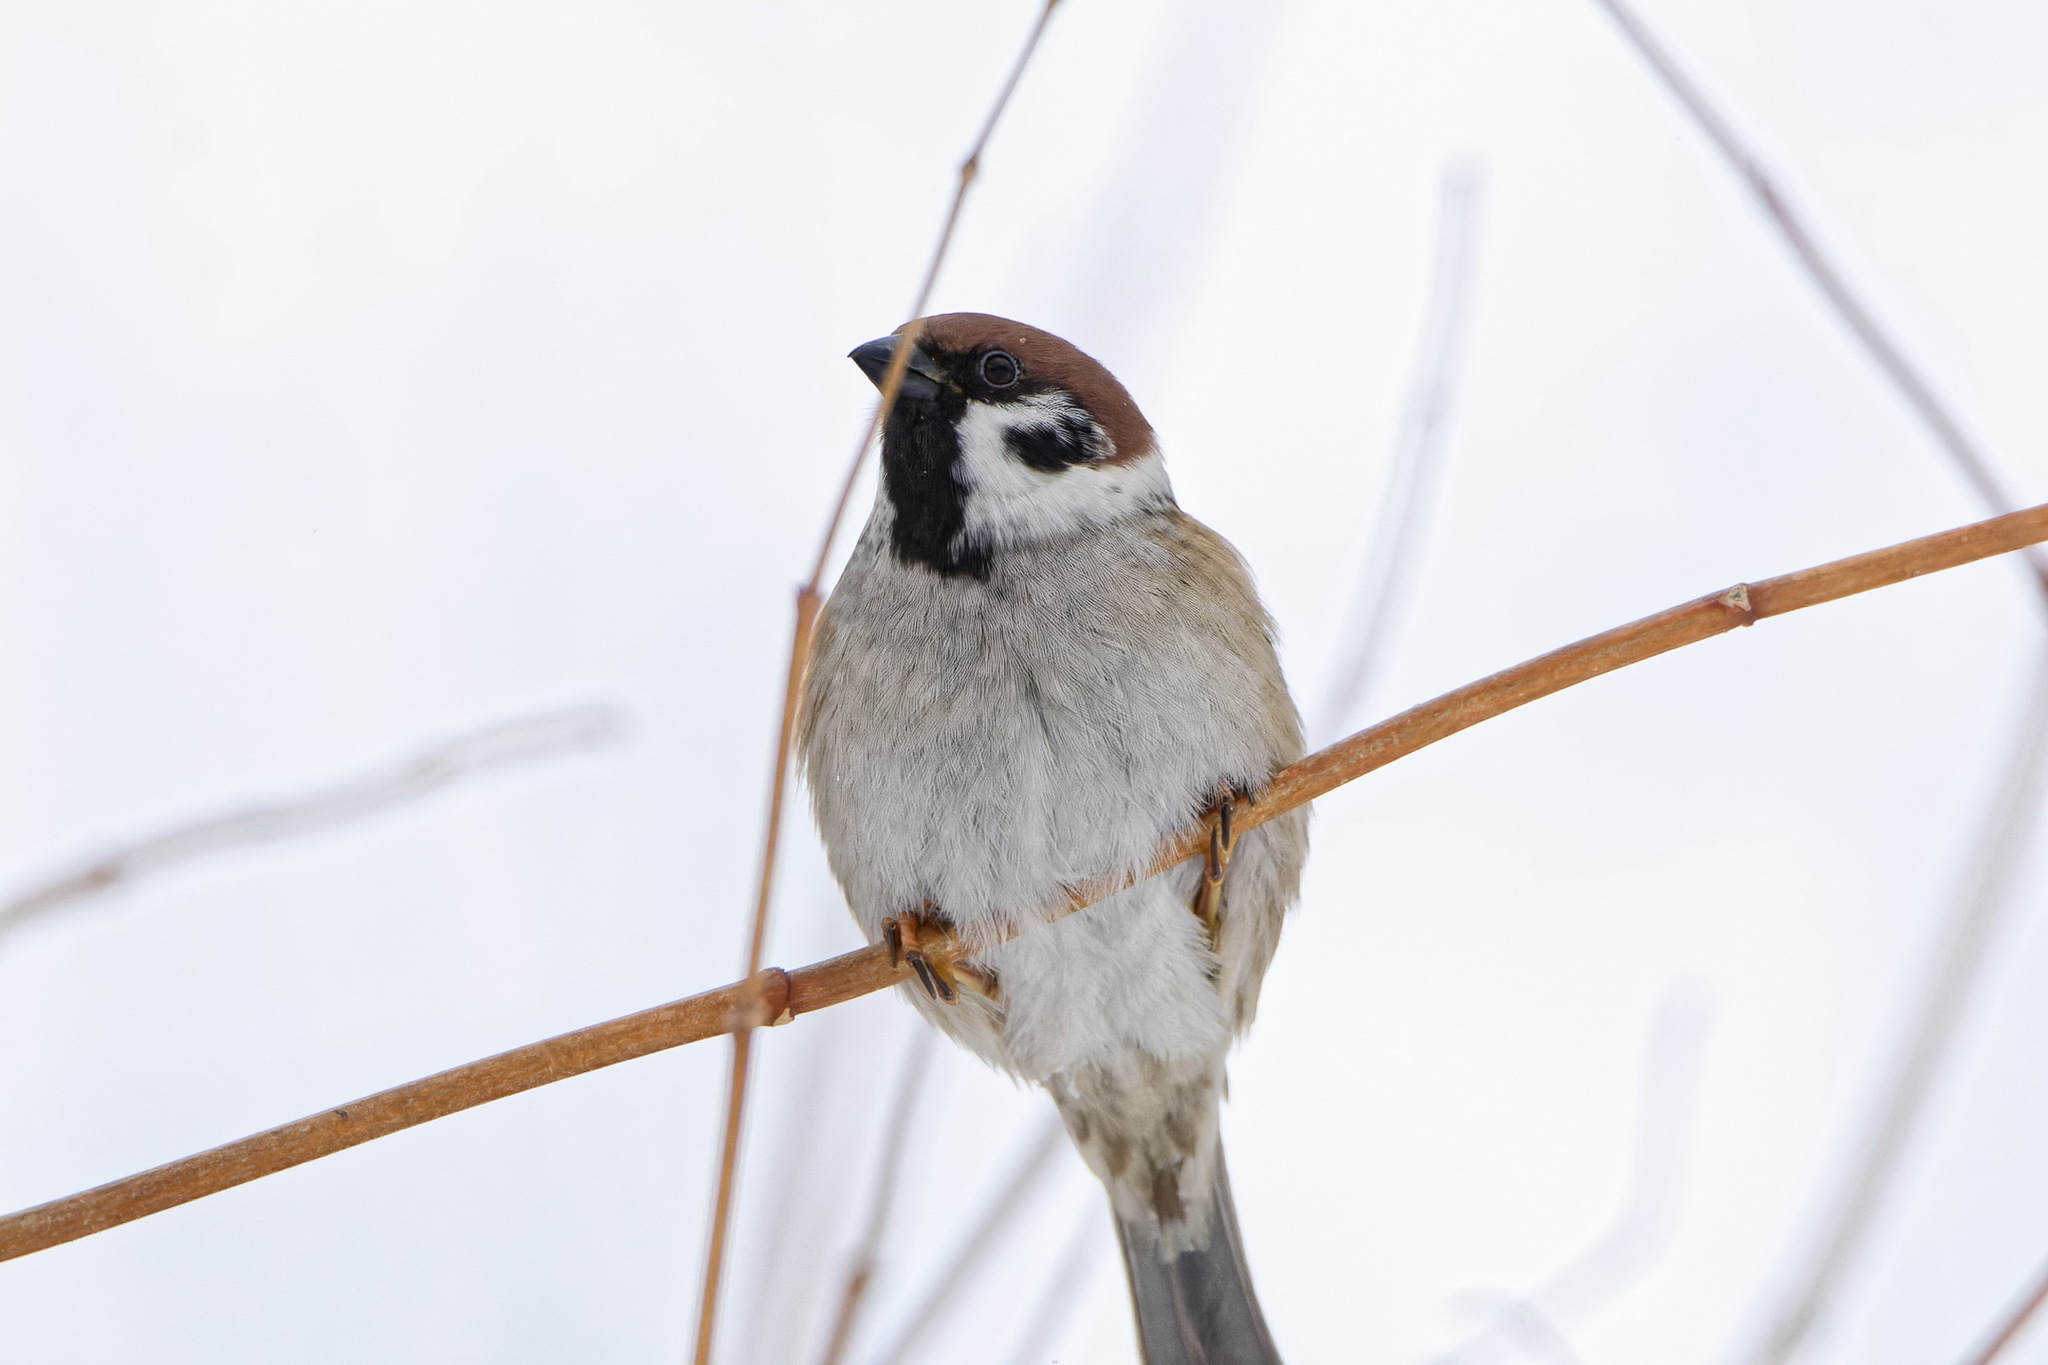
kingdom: Animalia
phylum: Chordata
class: Aves
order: Passeriformes
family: Passeridae
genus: Passer
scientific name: Passer montanus
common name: Eurasian tree sparrow
